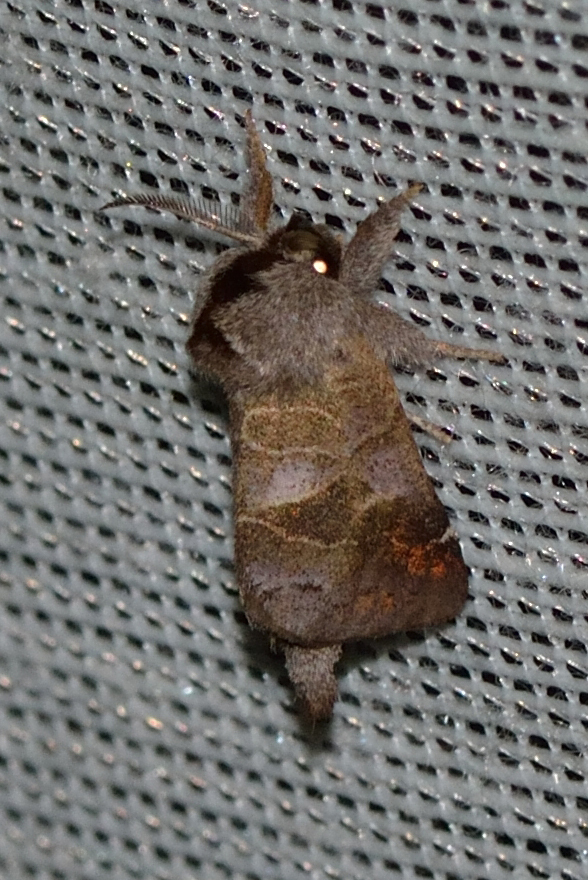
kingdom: Animalia
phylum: Arthropoda
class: Insecta
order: Lepidoptera
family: Notodontidae
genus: Clostera
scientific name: Clostera pigra
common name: Small chocolate-tip
